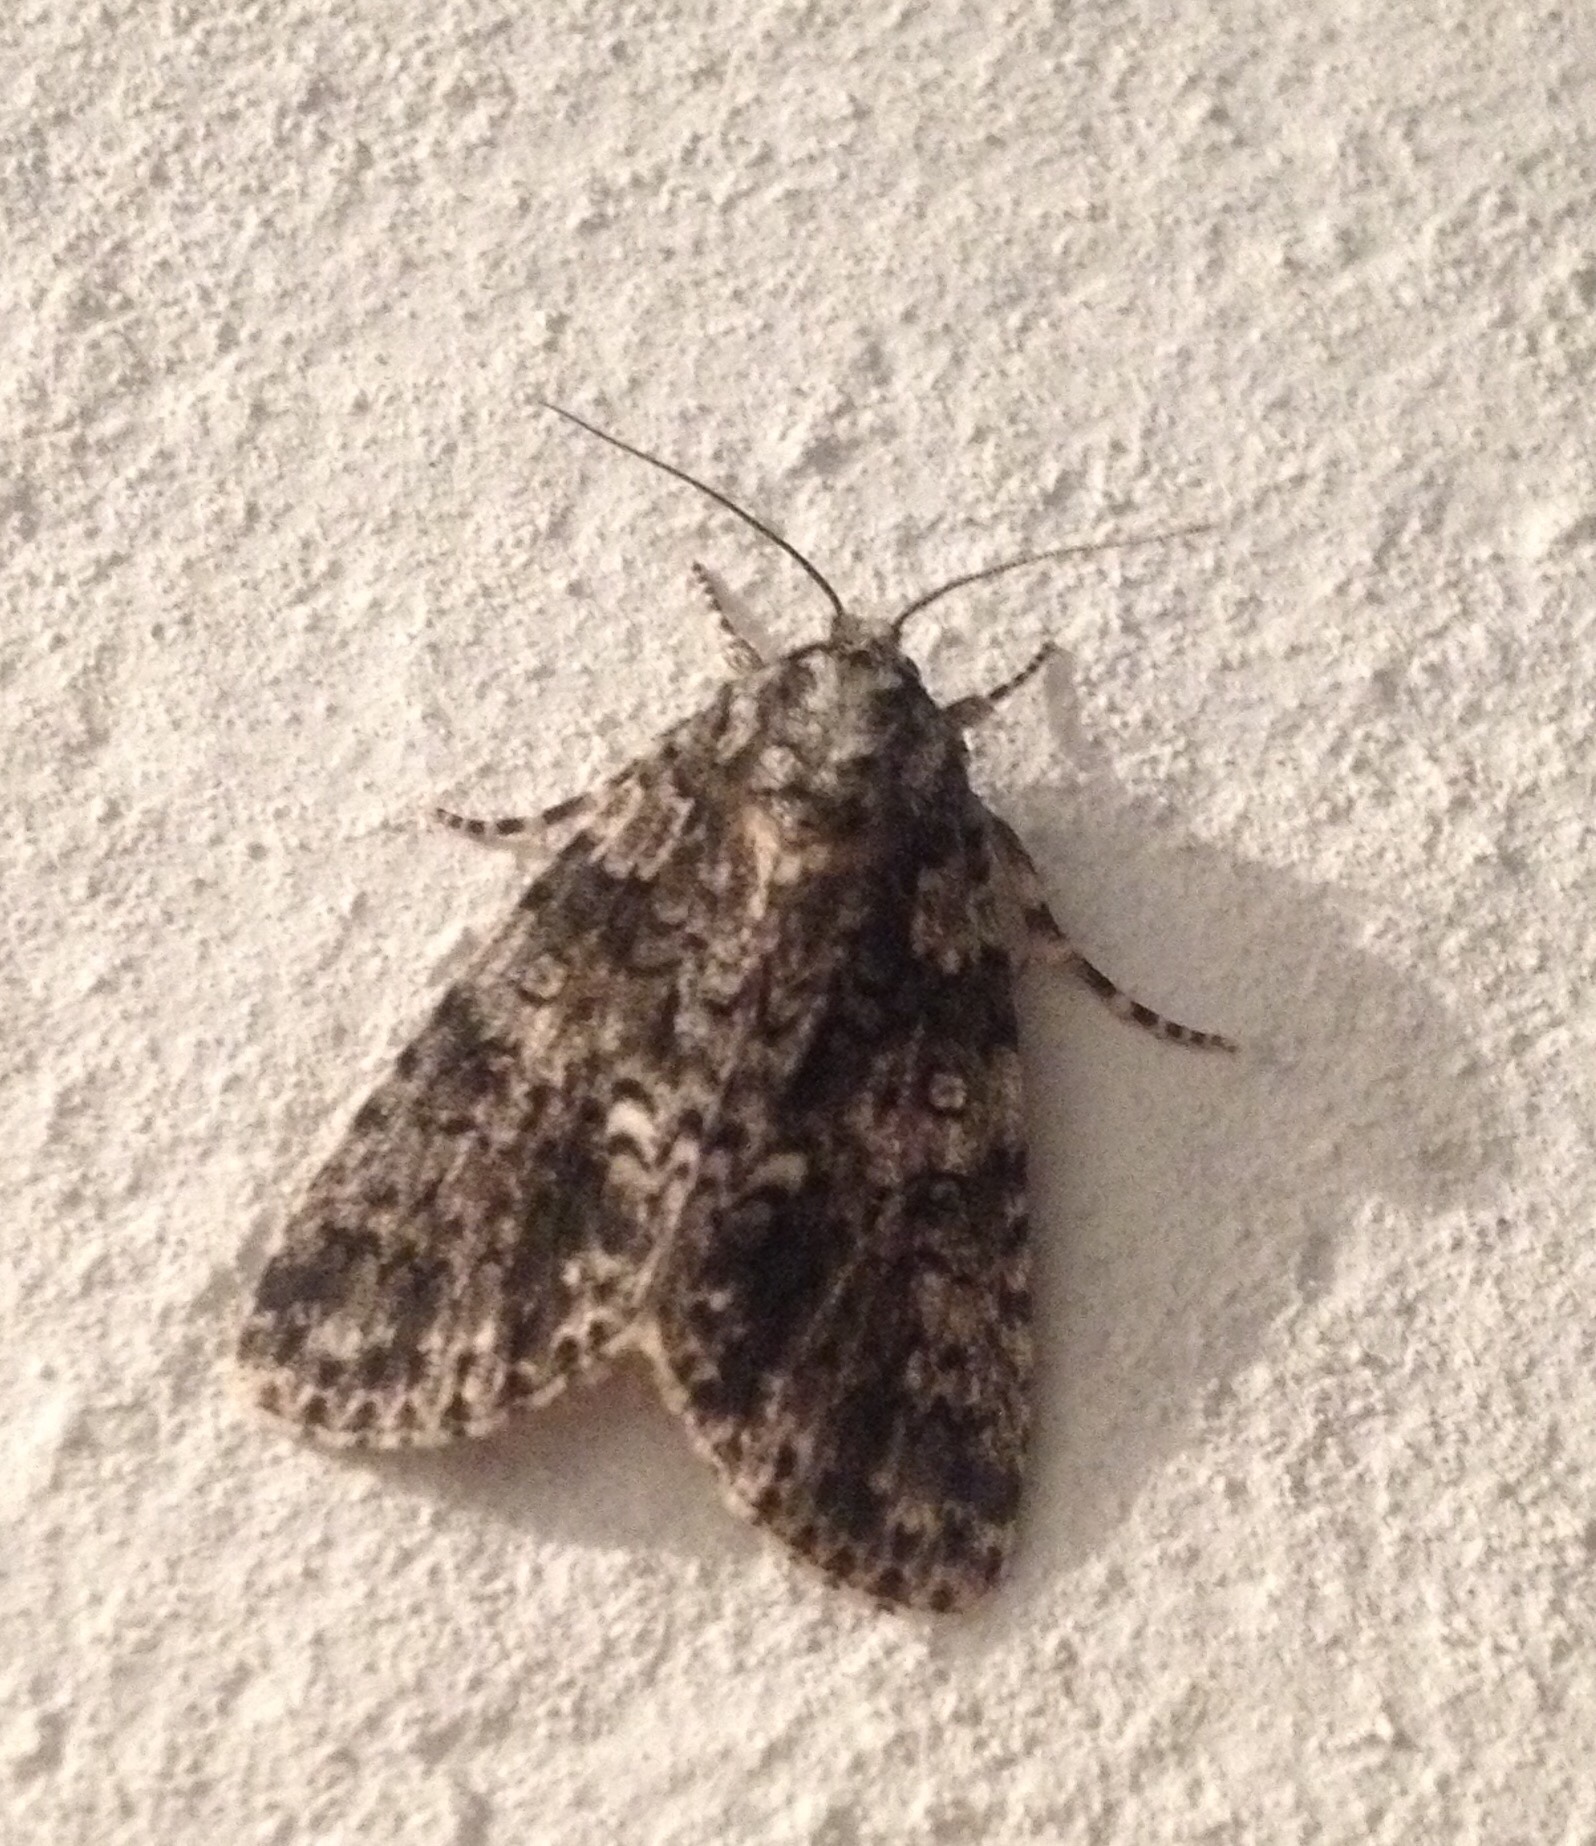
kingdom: Animalia
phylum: Arthropoda
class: Insecta
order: Lepidoptera
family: Noctuidae
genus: Acronicta
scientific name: Acronicta rumicis
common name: Knot grass
